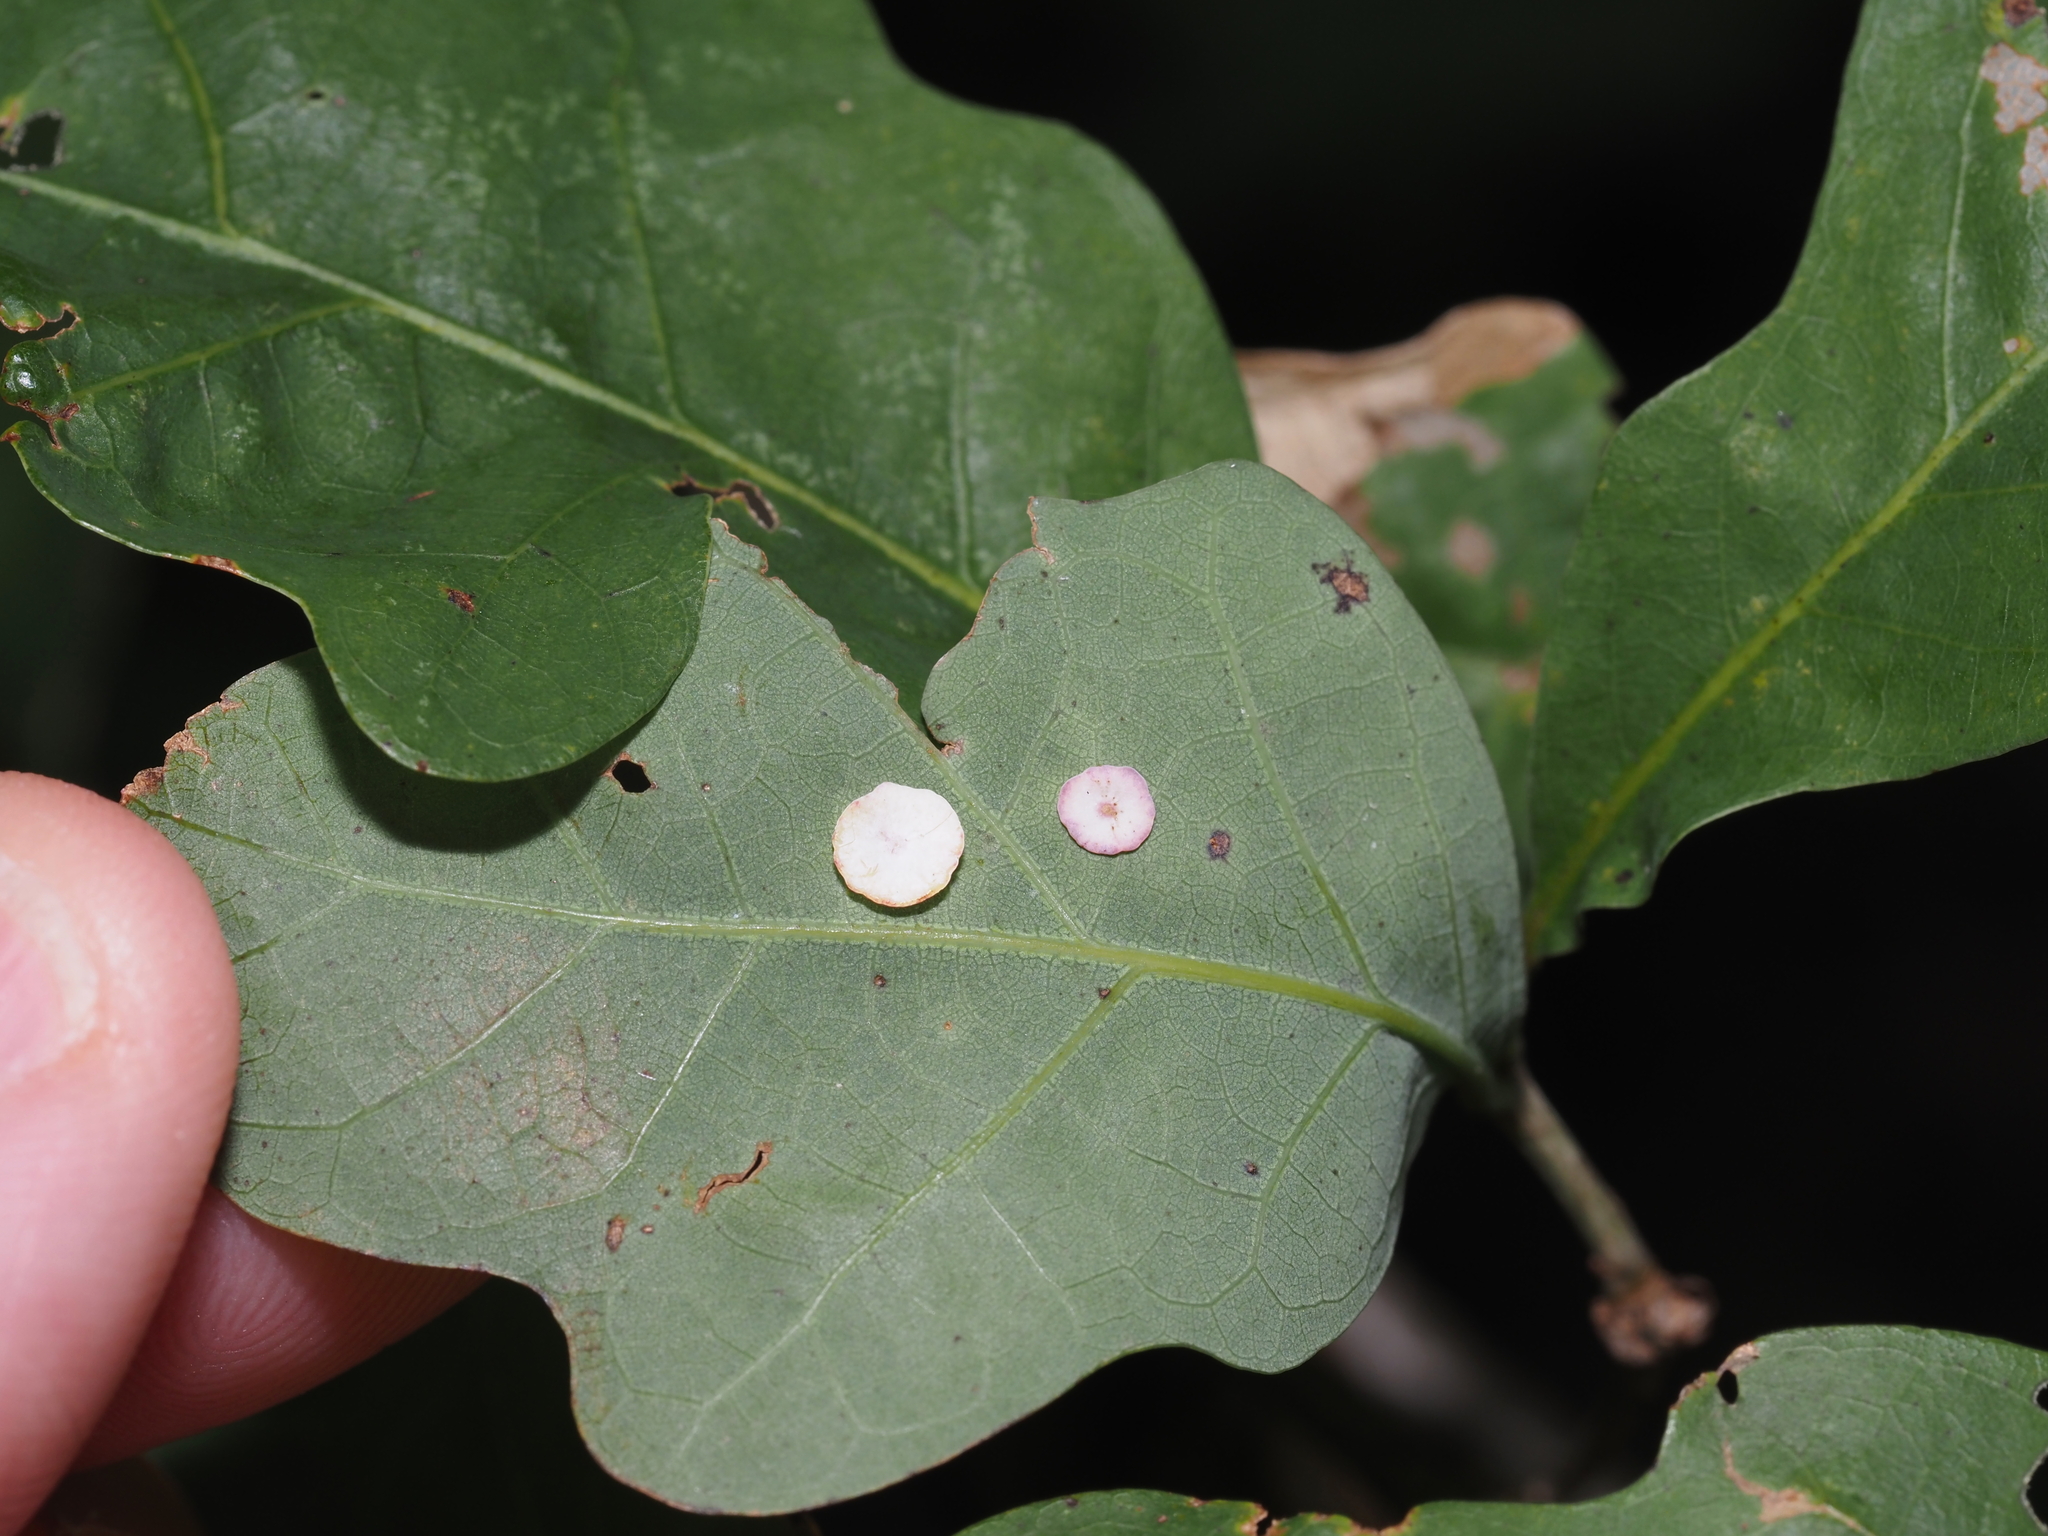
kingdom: Animalia
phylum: Arthropoda
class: Insecta
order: Hymenoptera
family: Cynipidae
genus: Phylloteras
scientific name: Phylloteras poculum
